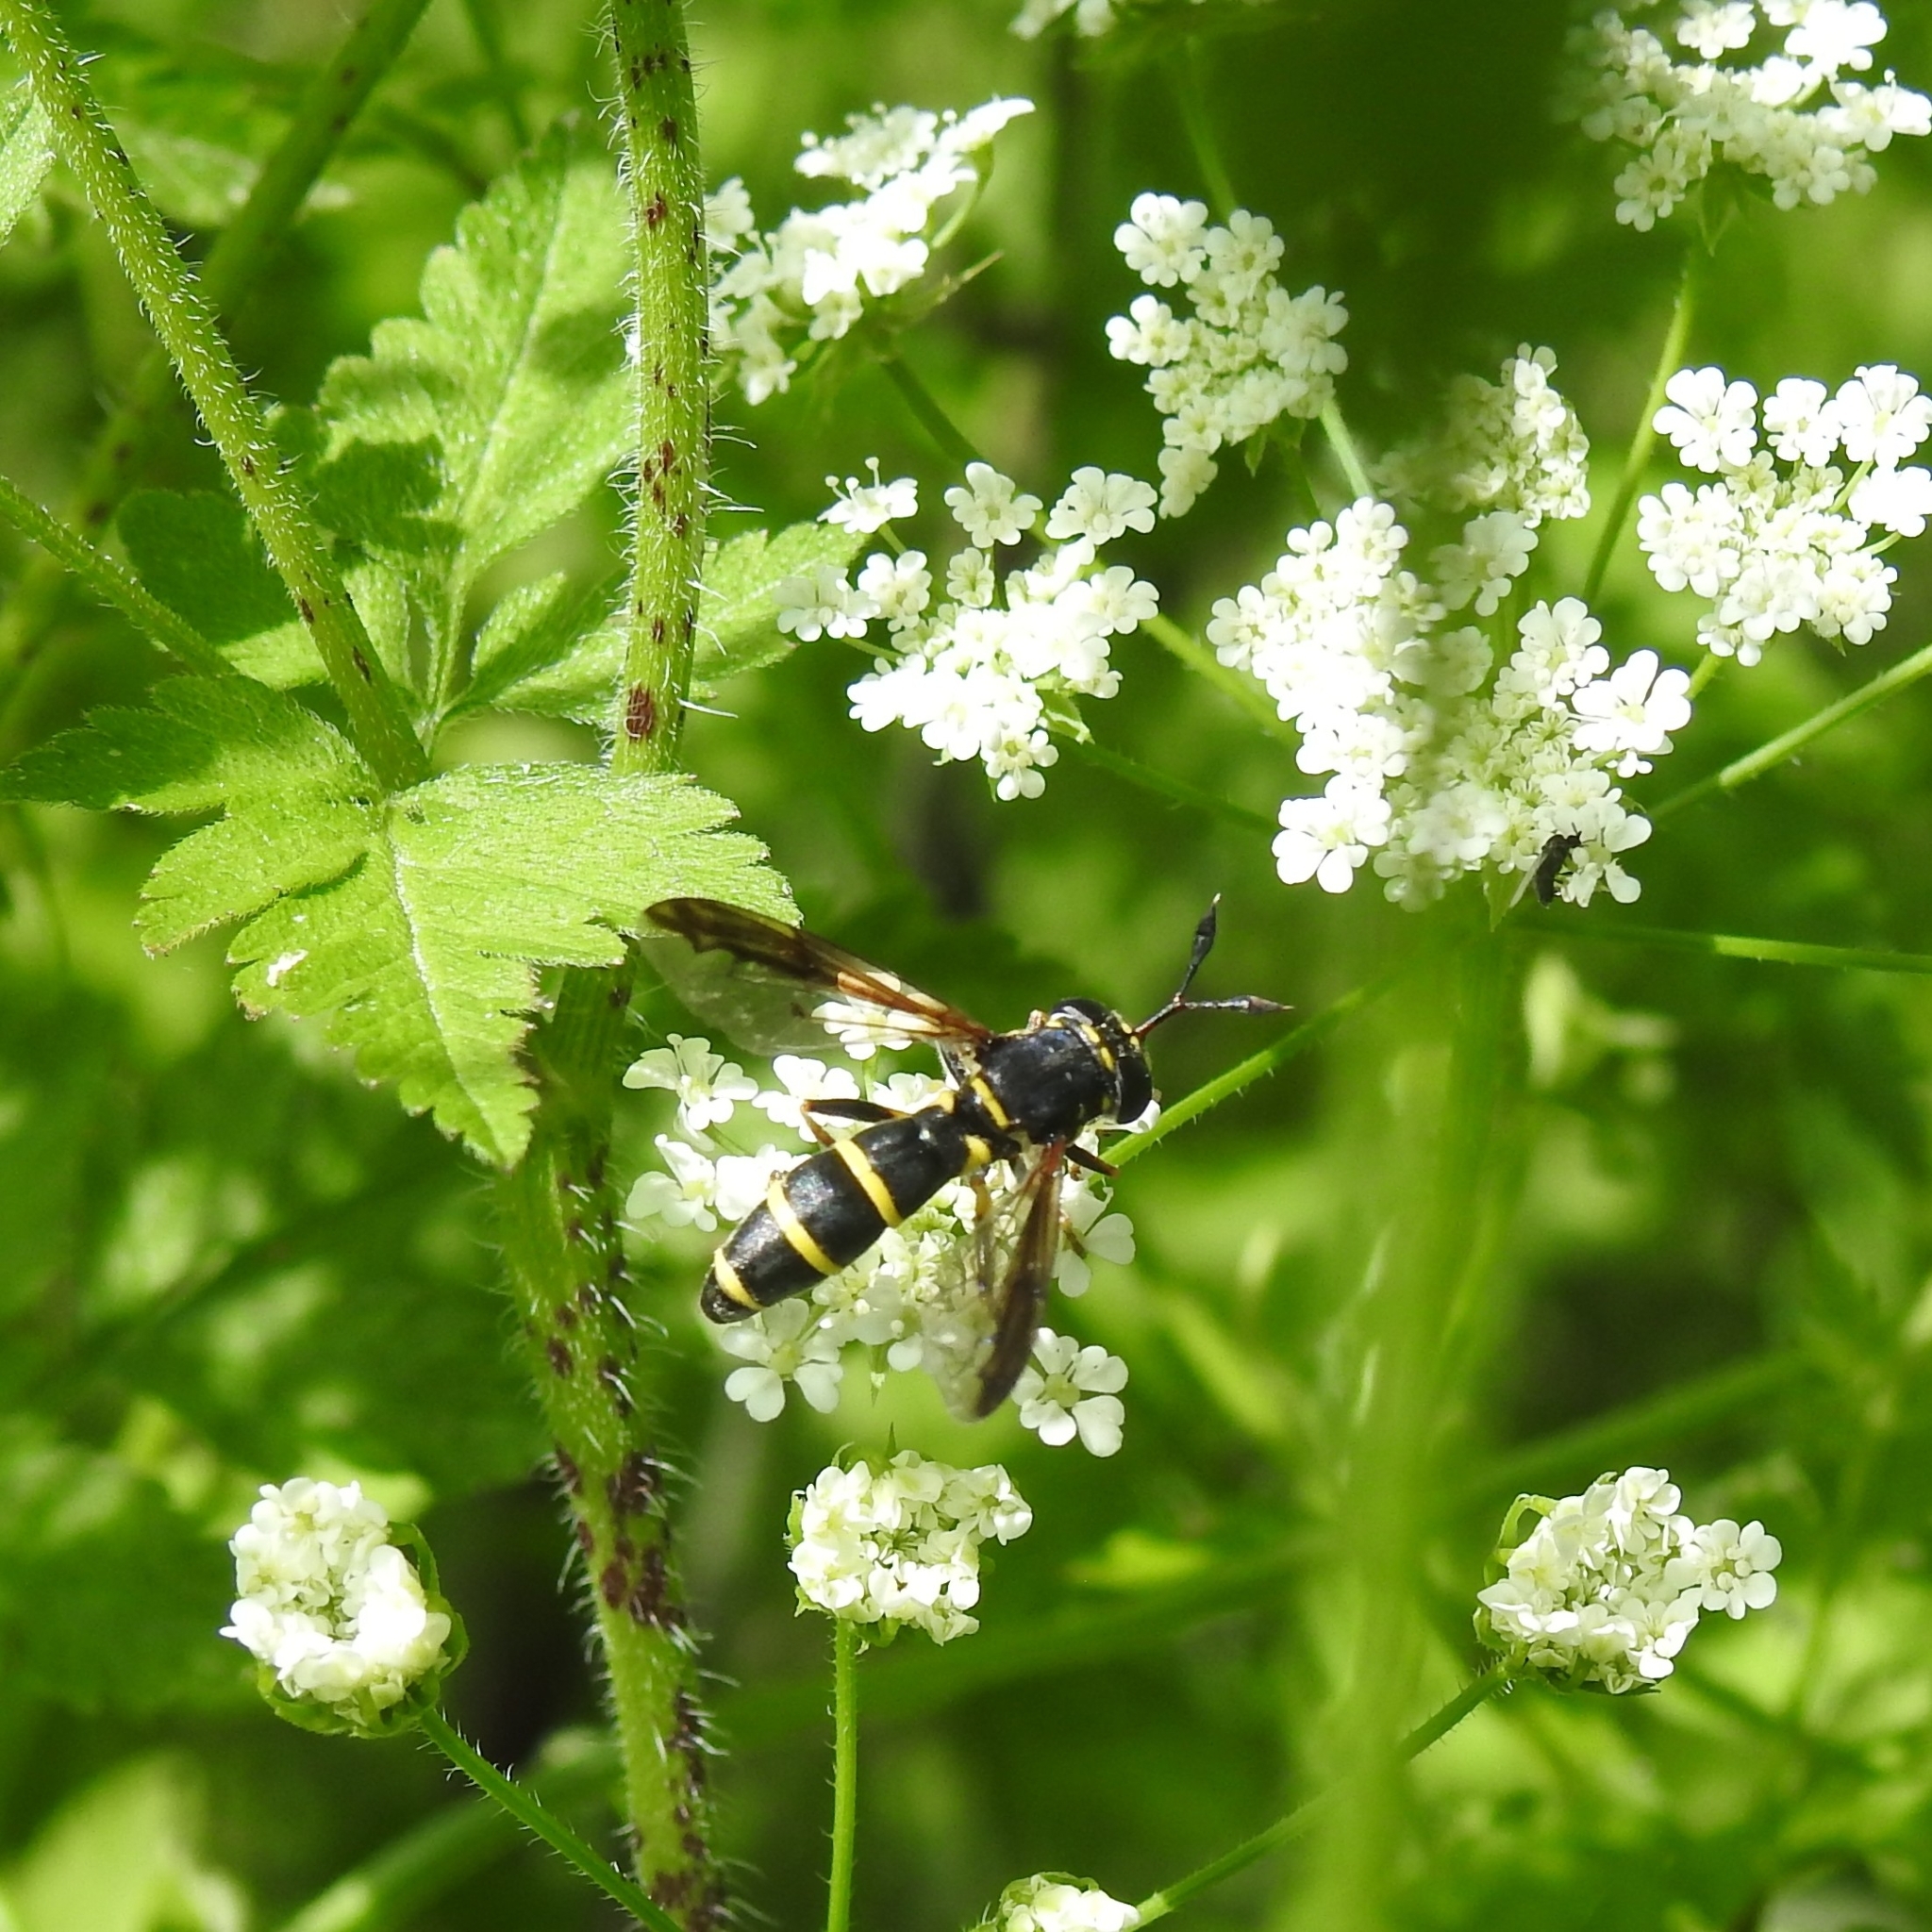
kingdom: Animalia
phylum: Arthropoda
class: Insecta
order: Diptera
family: Syrphidae
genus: Ceriana
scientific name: Ceriana conopsoides
